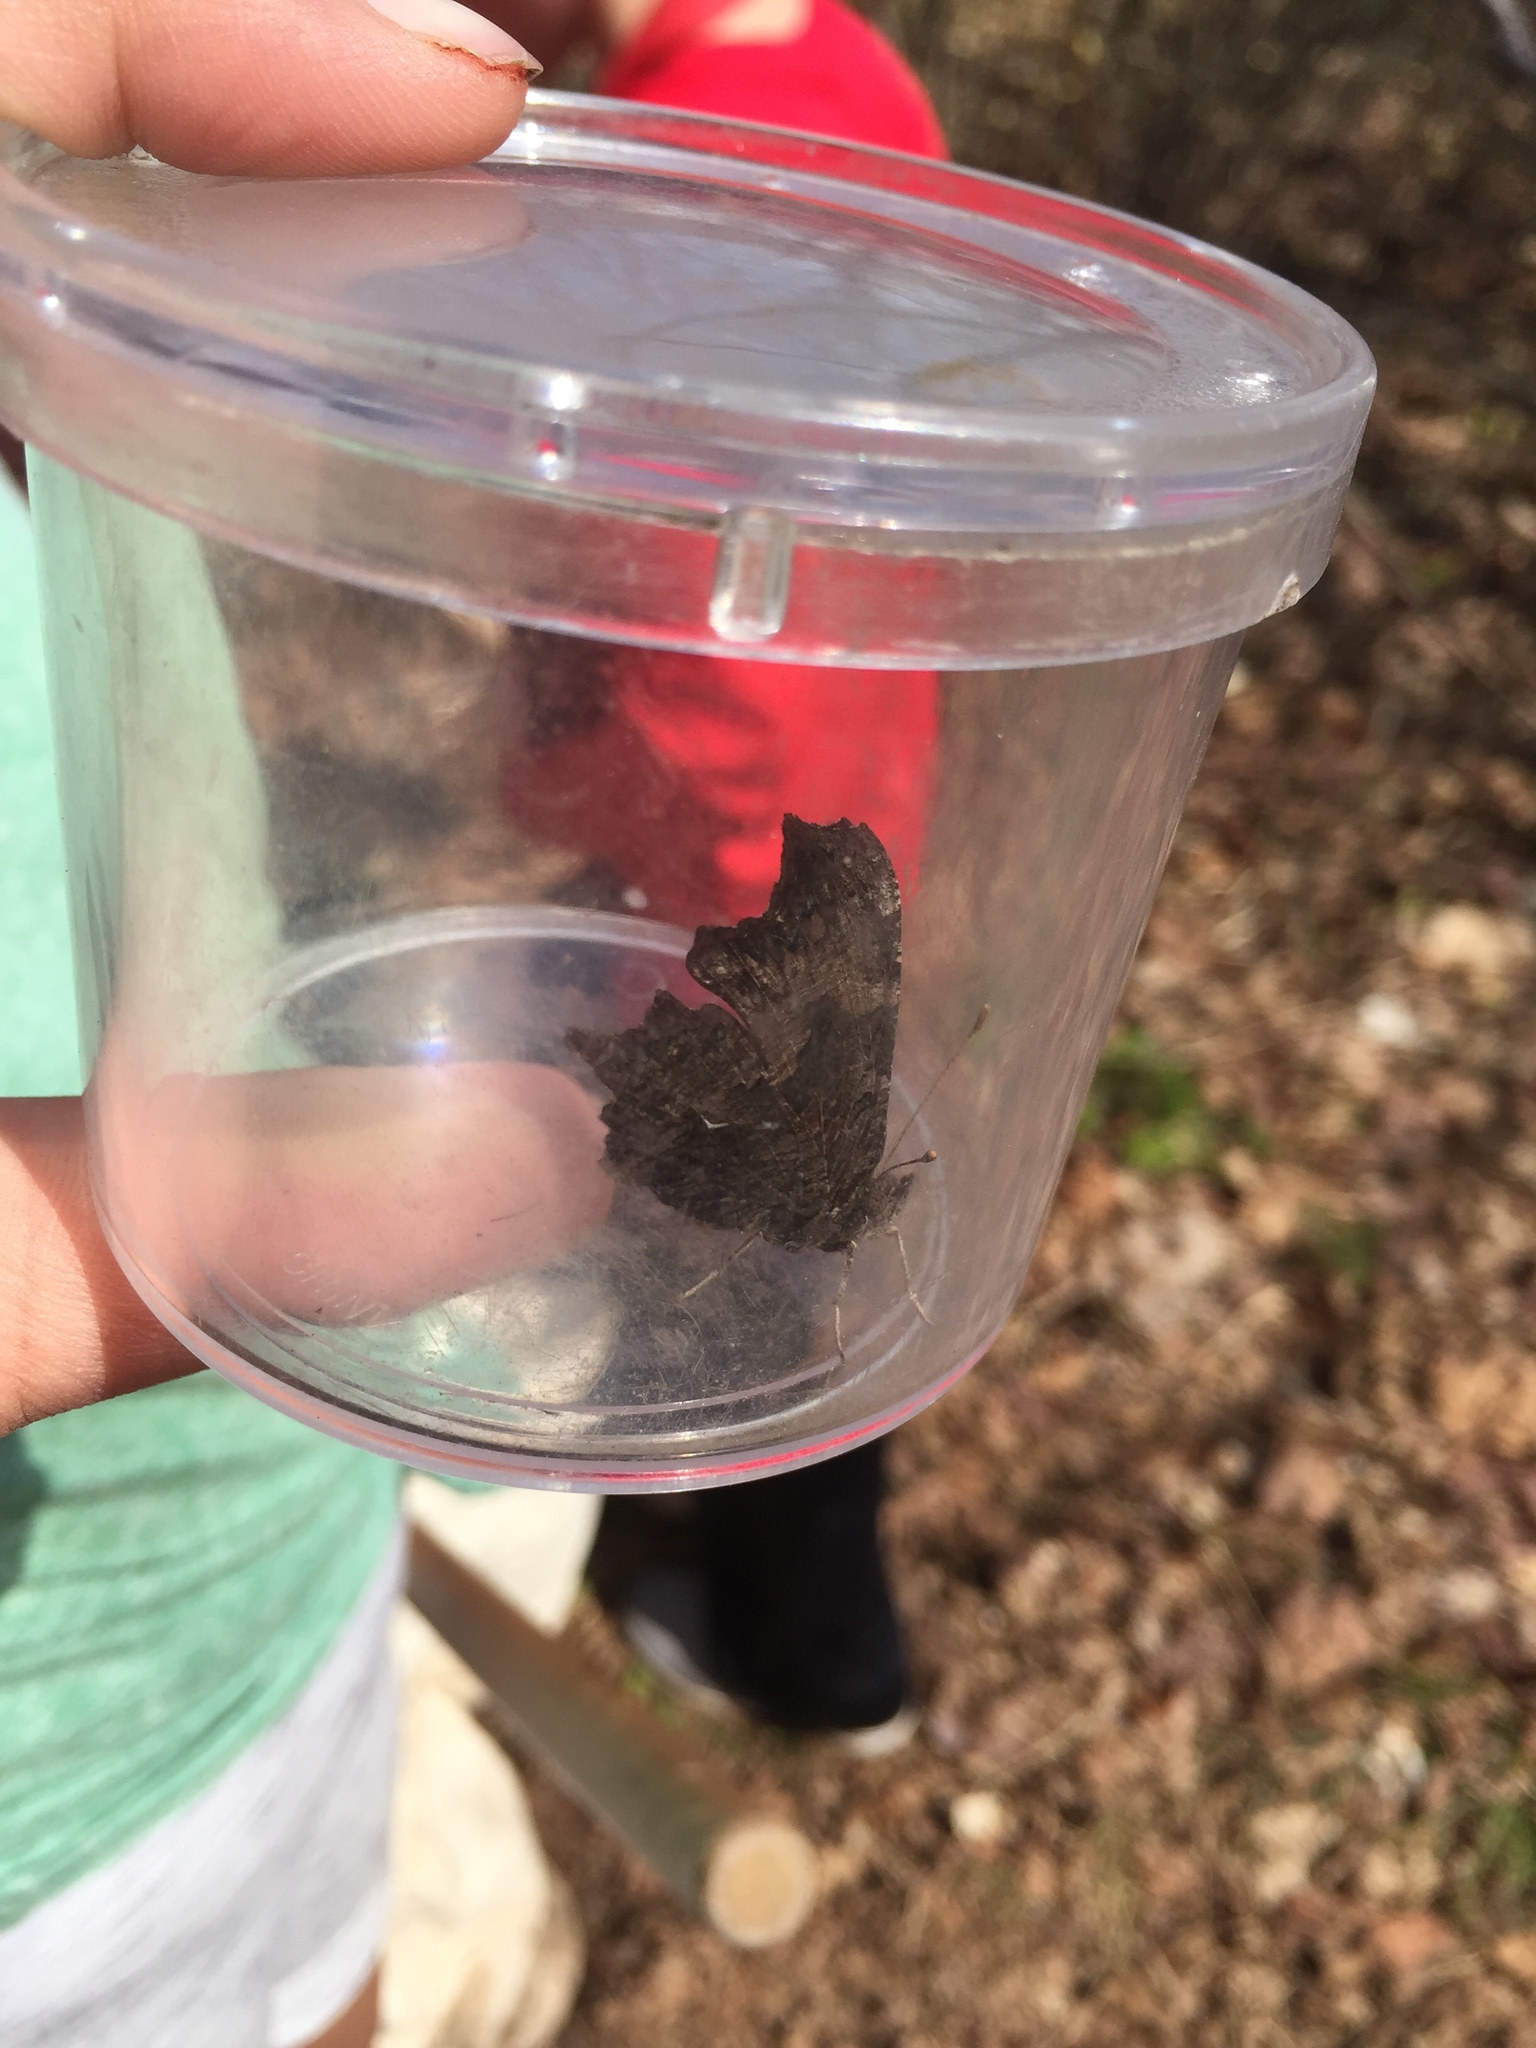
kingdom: Animalia
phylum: Arthropoda
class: Insecta
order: Lepidoptera
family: Nymphalidae
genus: Polygonia
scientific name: Polygonia vaualbum
